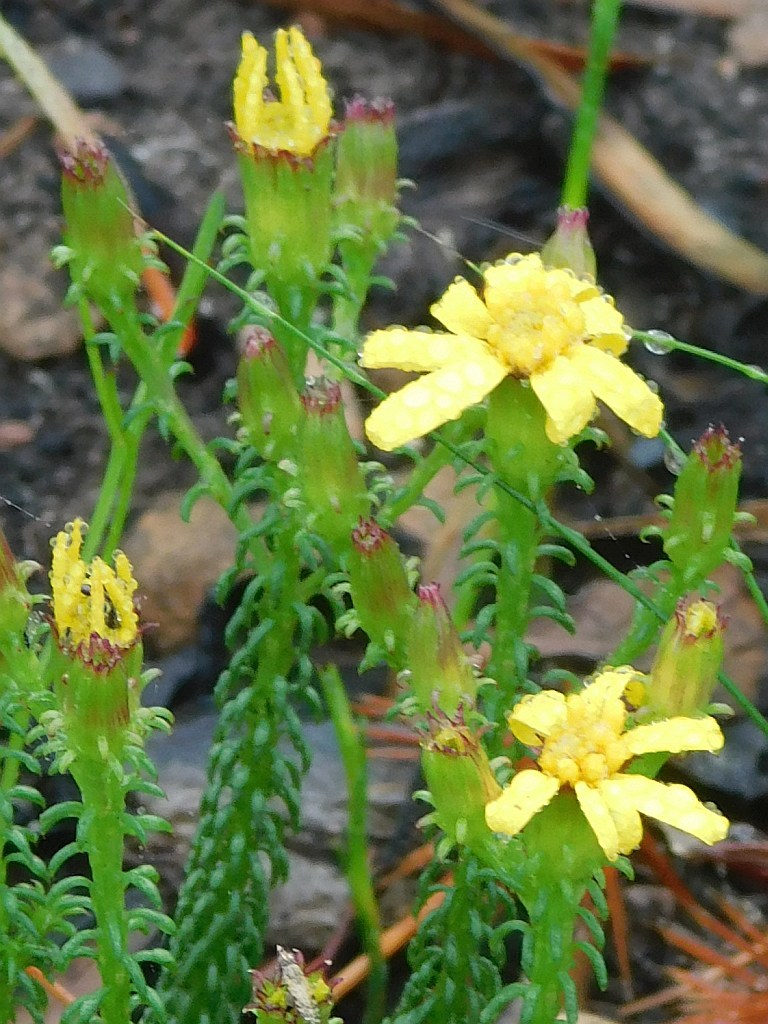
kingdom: Plantae
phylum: Tracheophyta
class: Magnoliopsida
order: Asterales
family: Asteraceae
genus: Senecio
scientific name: Senecio retortus
